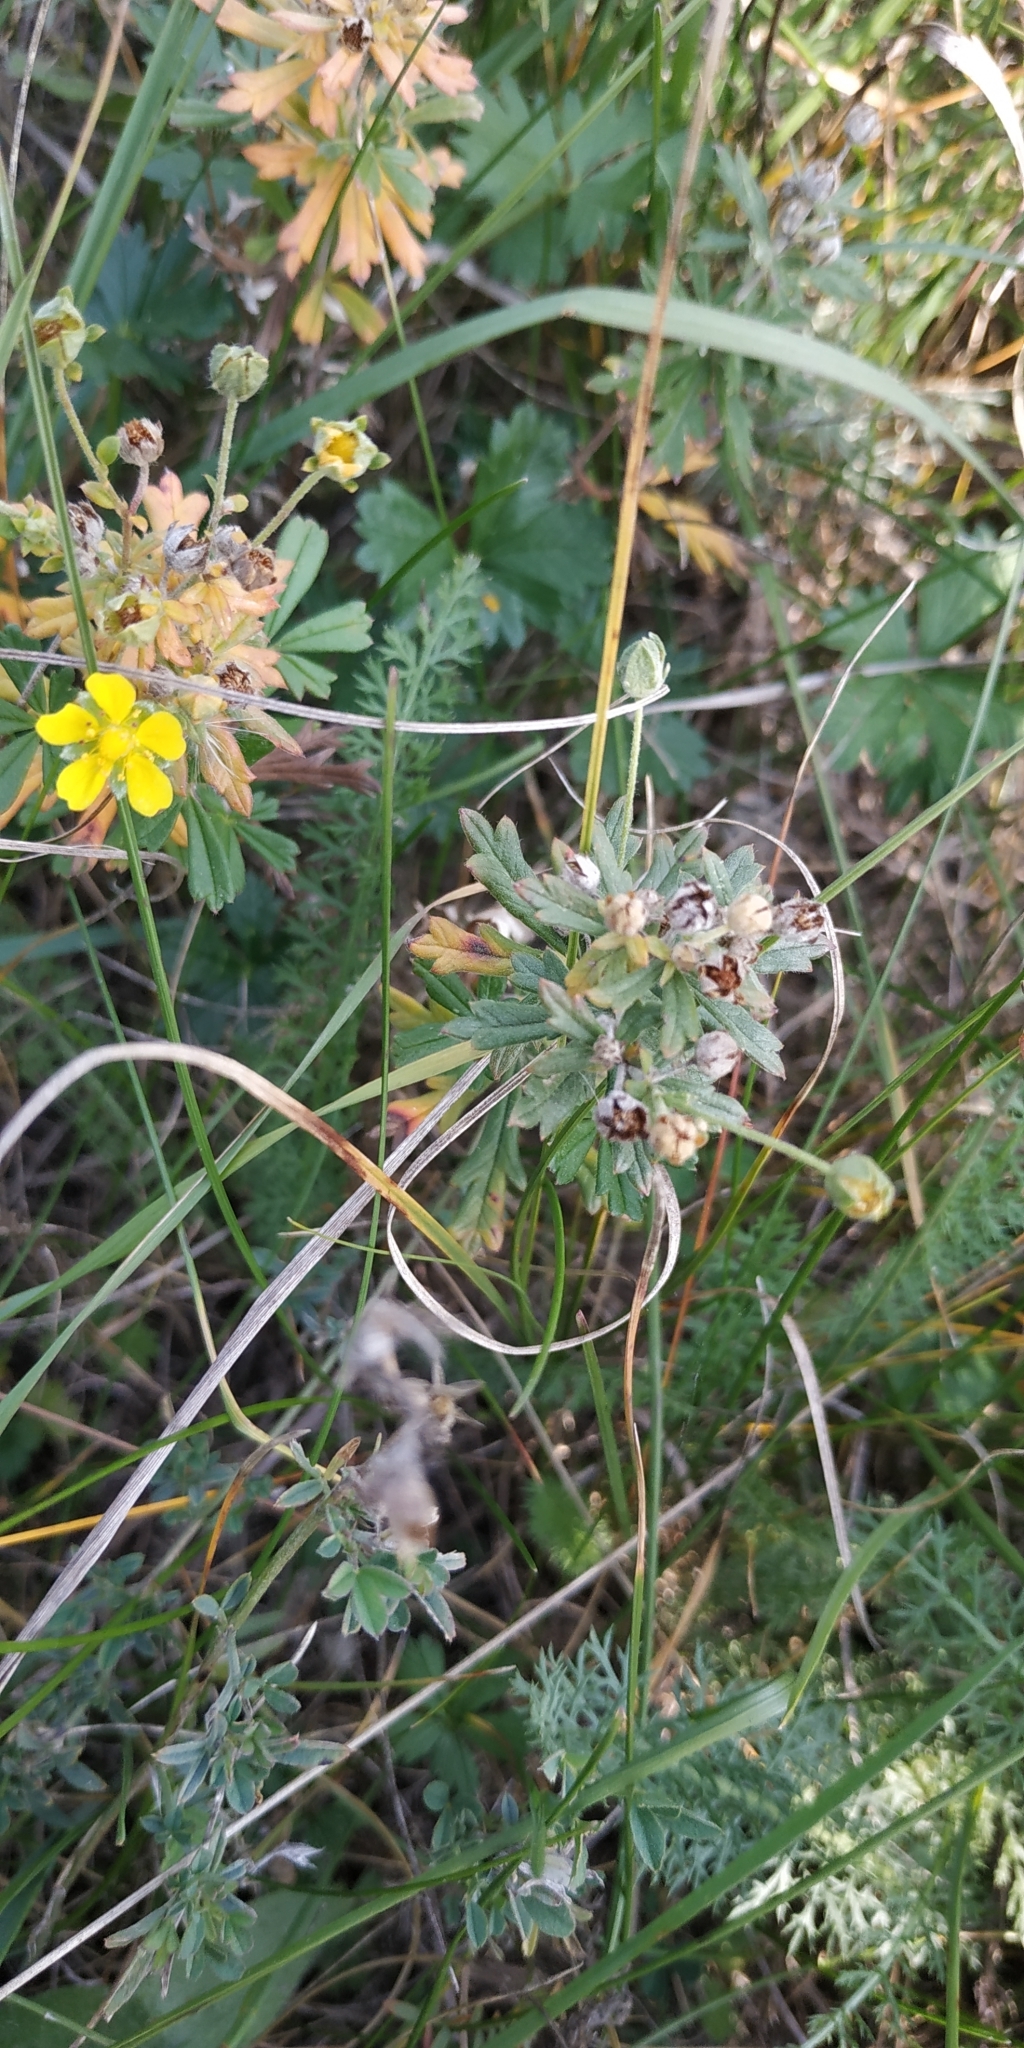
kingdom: Plantae
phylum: Tracheophyta
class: Magnoliopsida
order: Rosales
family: Rosaceae
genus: Potentilla
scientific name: Potentilla argentea
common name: Hoary cinquefoil
